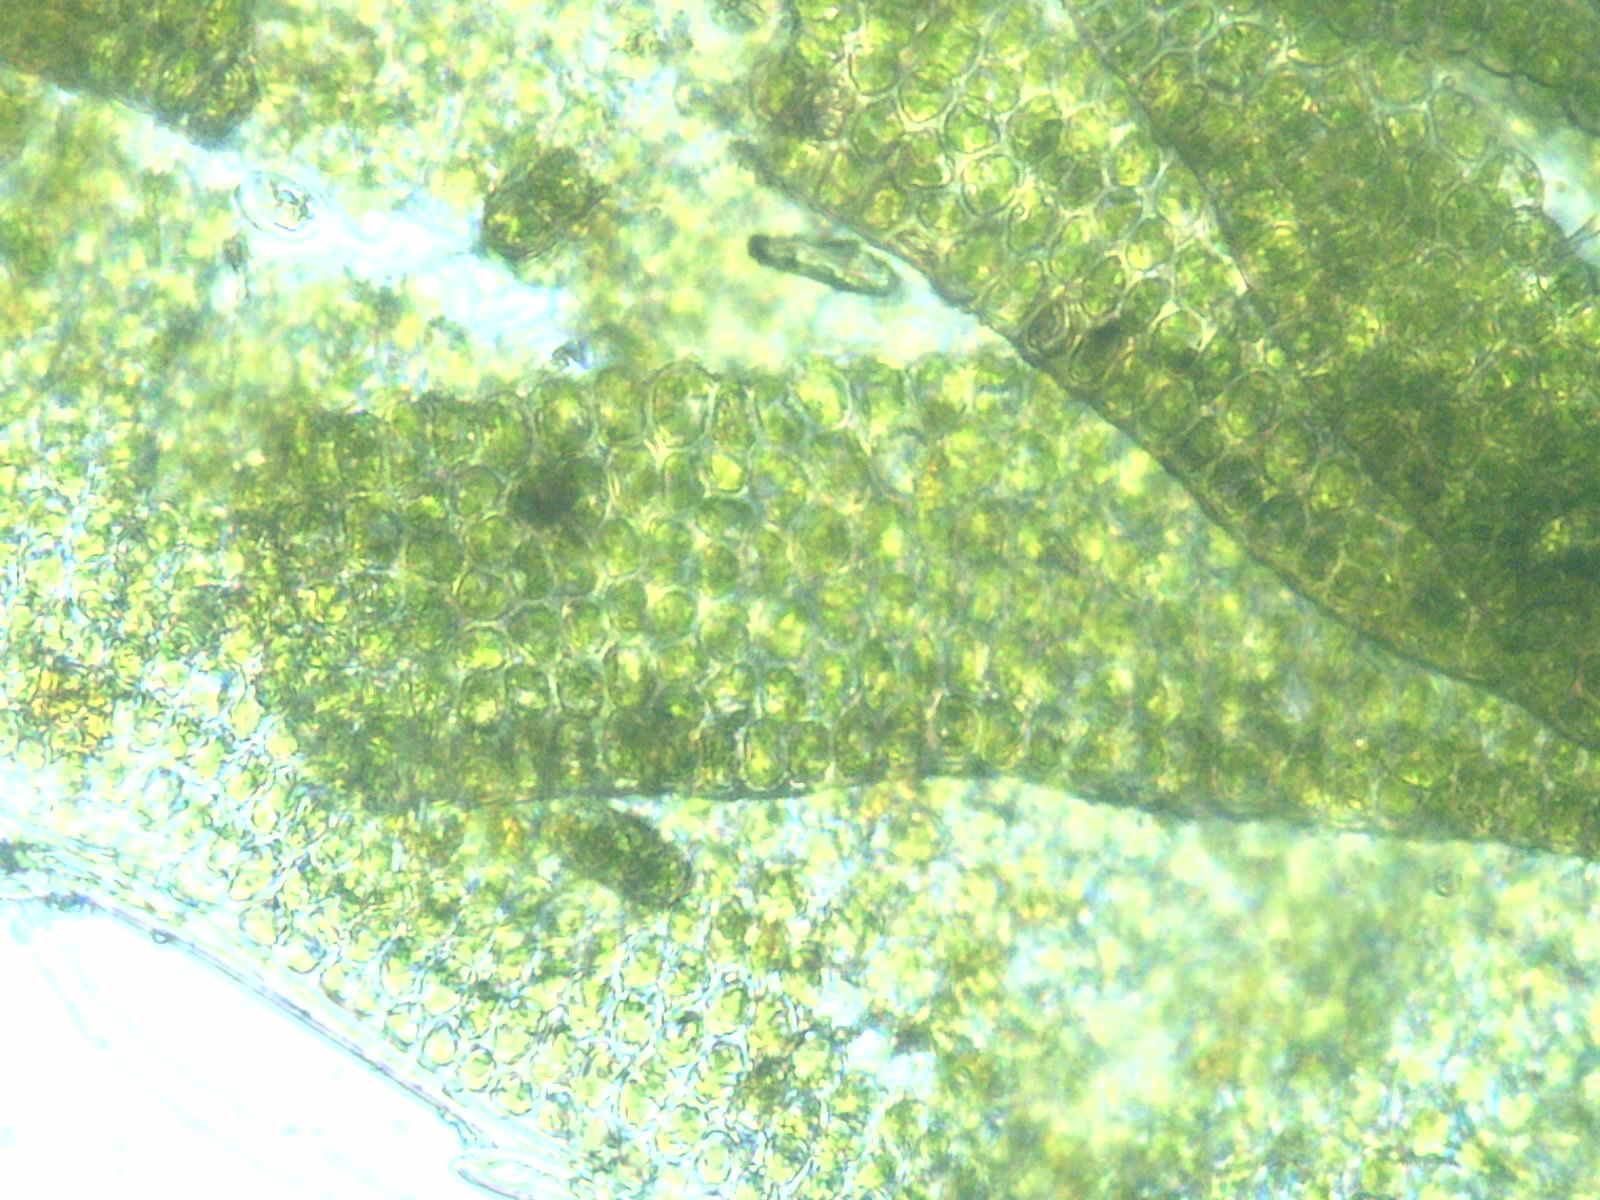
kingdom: Plantae
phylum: Bryophyta
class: Polytrichopsida
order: Polytrichales
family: Polytrichaceae
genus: Atrichum
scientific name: Atrichum angustatum
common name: Lesser smoothcap
